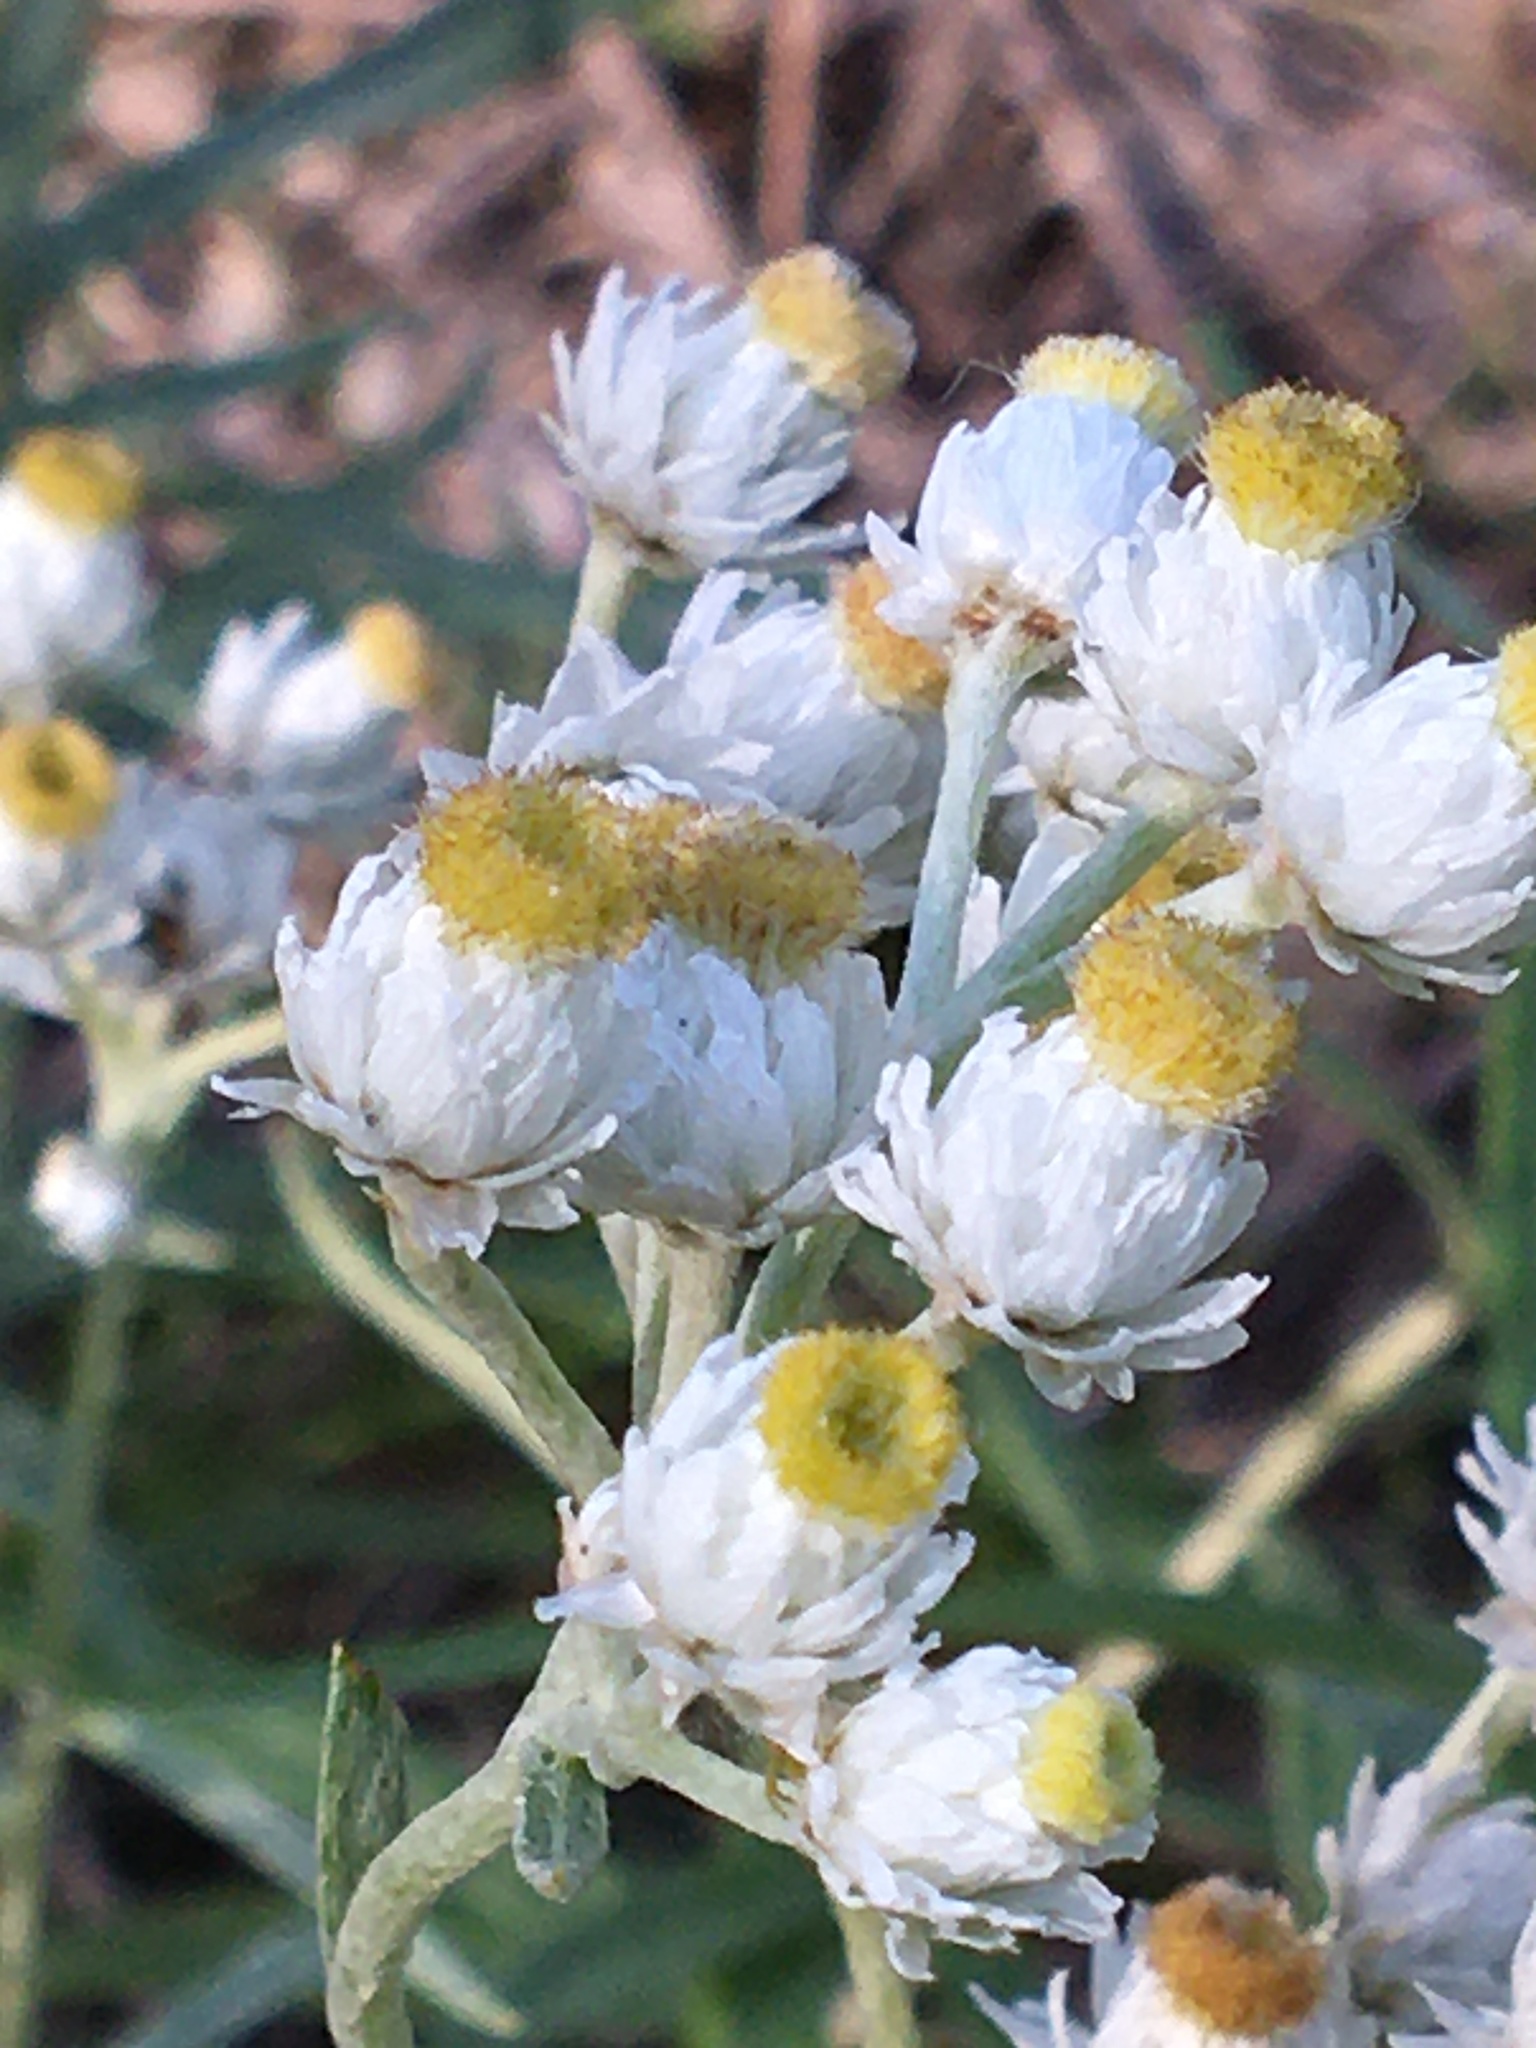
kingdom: Plantae
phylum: Tracheophyta
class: Magnoliopsida
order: Asterales
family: Asteraceae
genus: Anaphalis
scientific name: Anaphalis margaritacea
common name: Pearly everlasting
